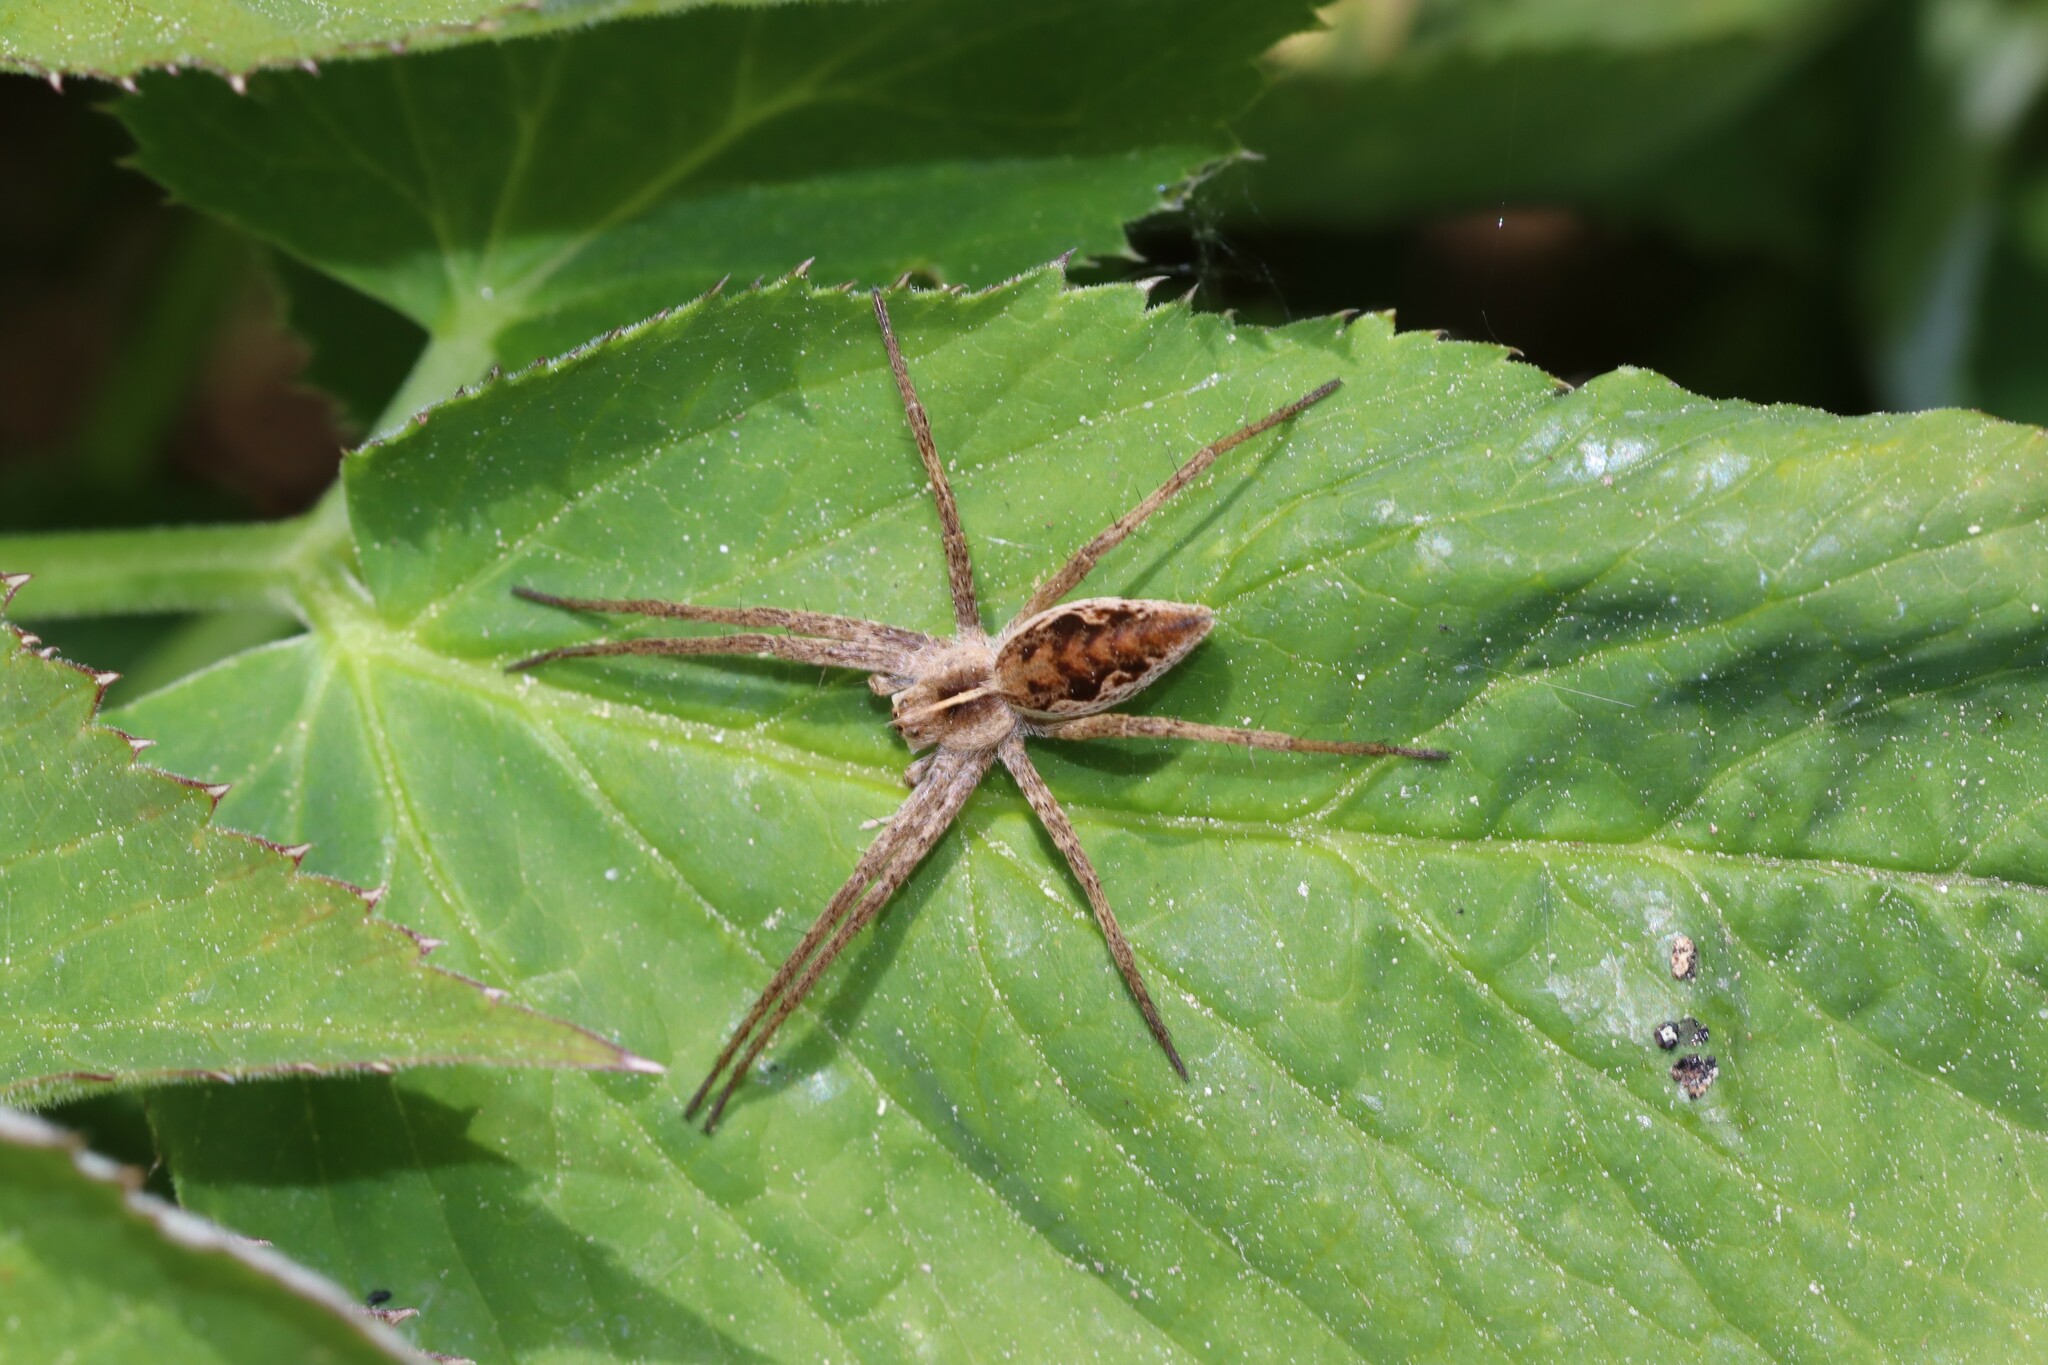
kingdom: Animalia
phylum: Arthropoda
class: Arachnida
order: Araneae
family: Pisauridae
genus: Pisaura
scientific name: Pisaura mirabilis
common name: Tent spider
